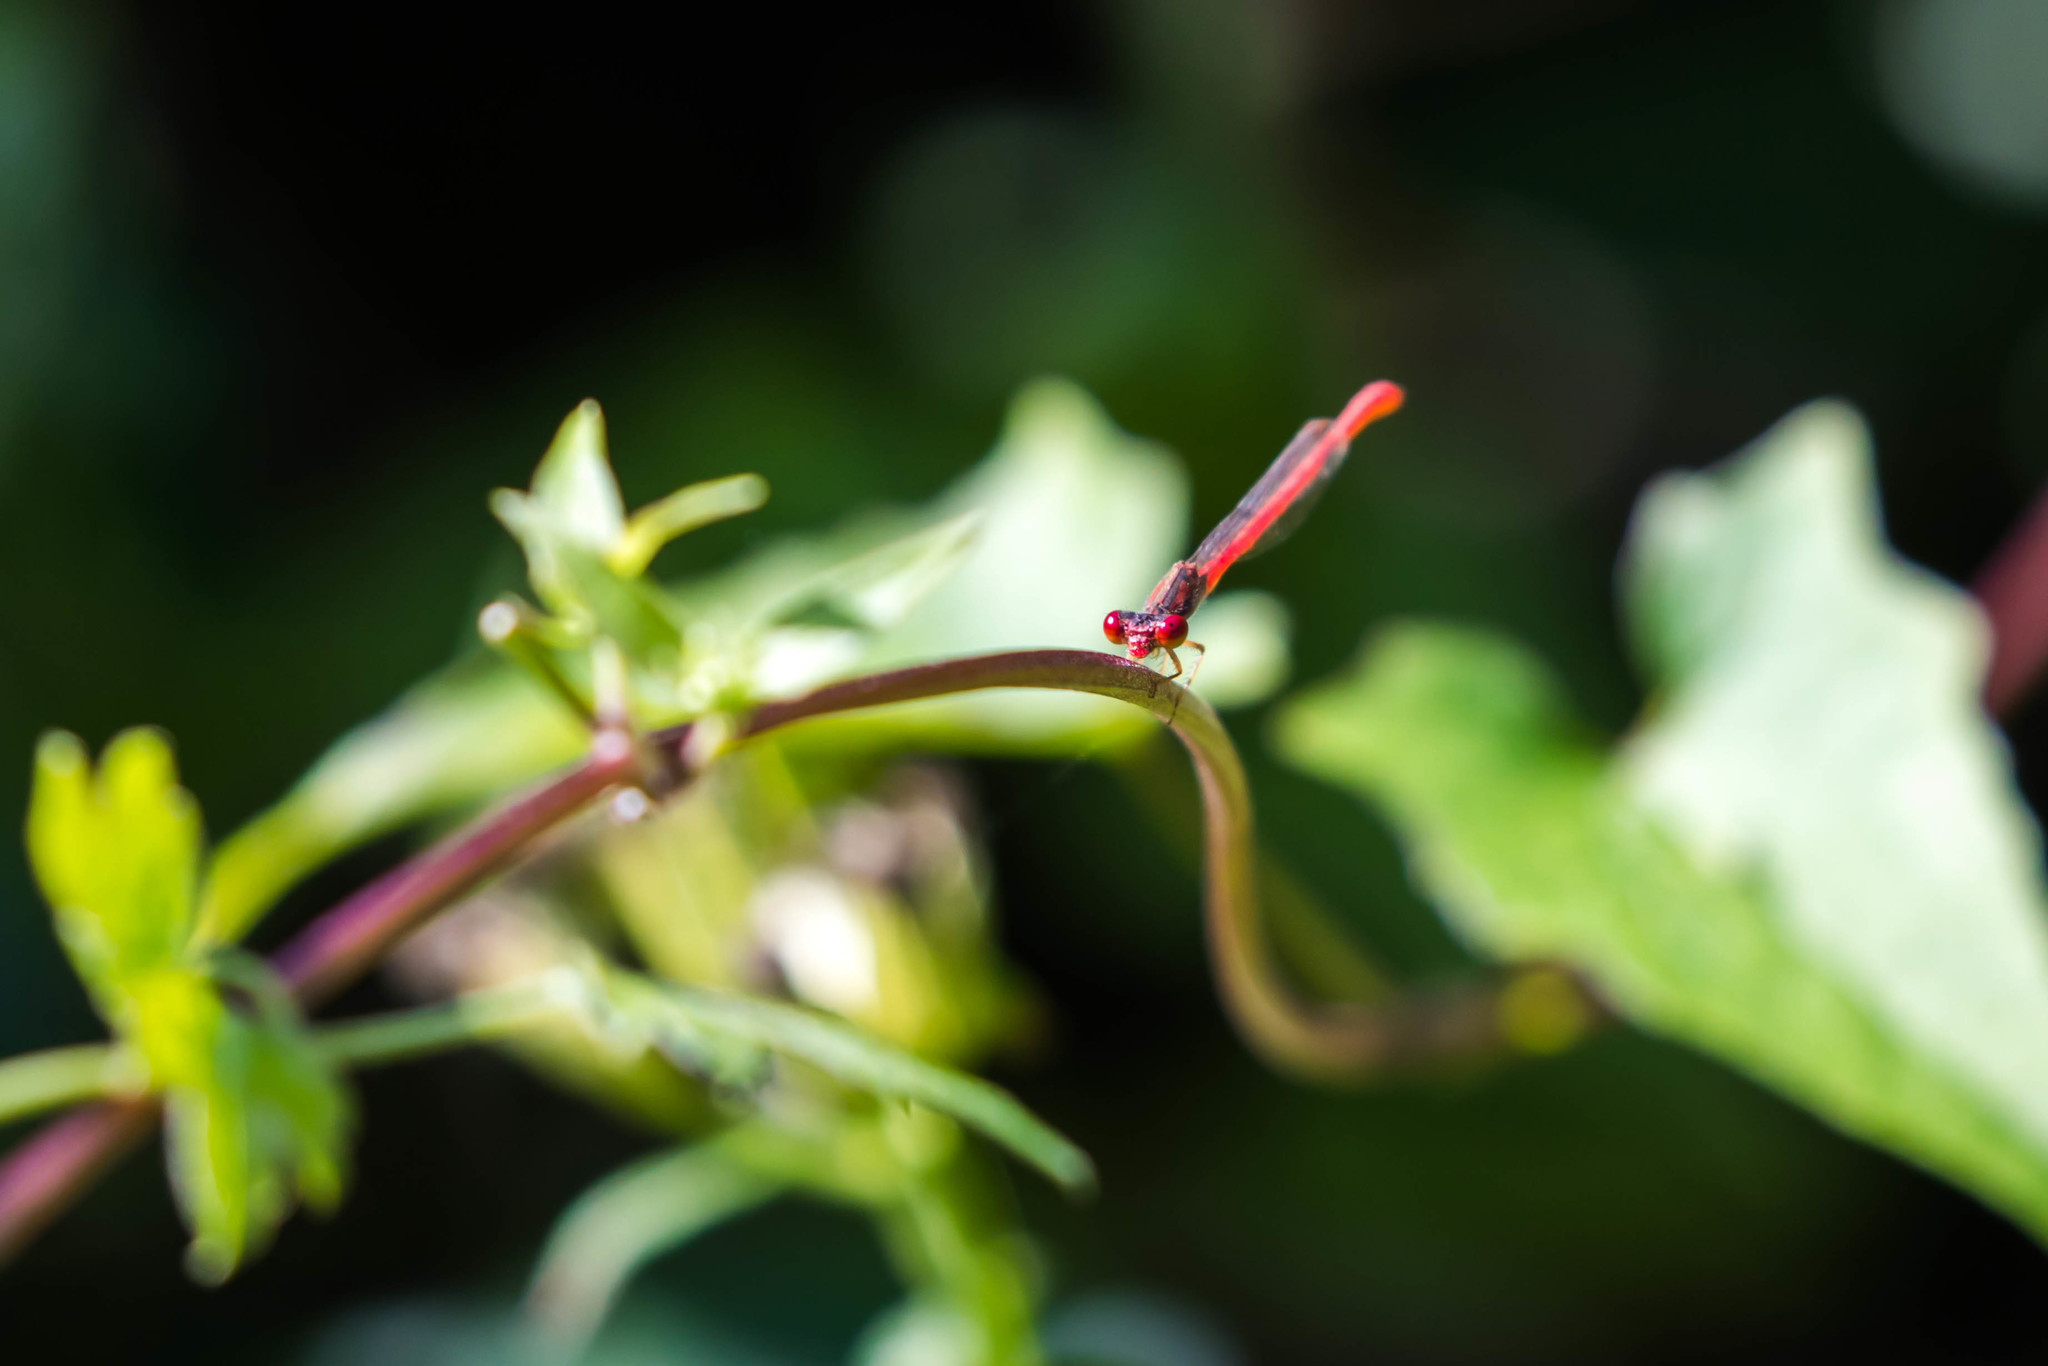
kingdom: Animalia
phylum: Arthropoda
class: Insecta
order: Odonata
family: Coenagrionidae
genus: Telebasis
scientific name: Telebasis salva
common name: Desert firetail
